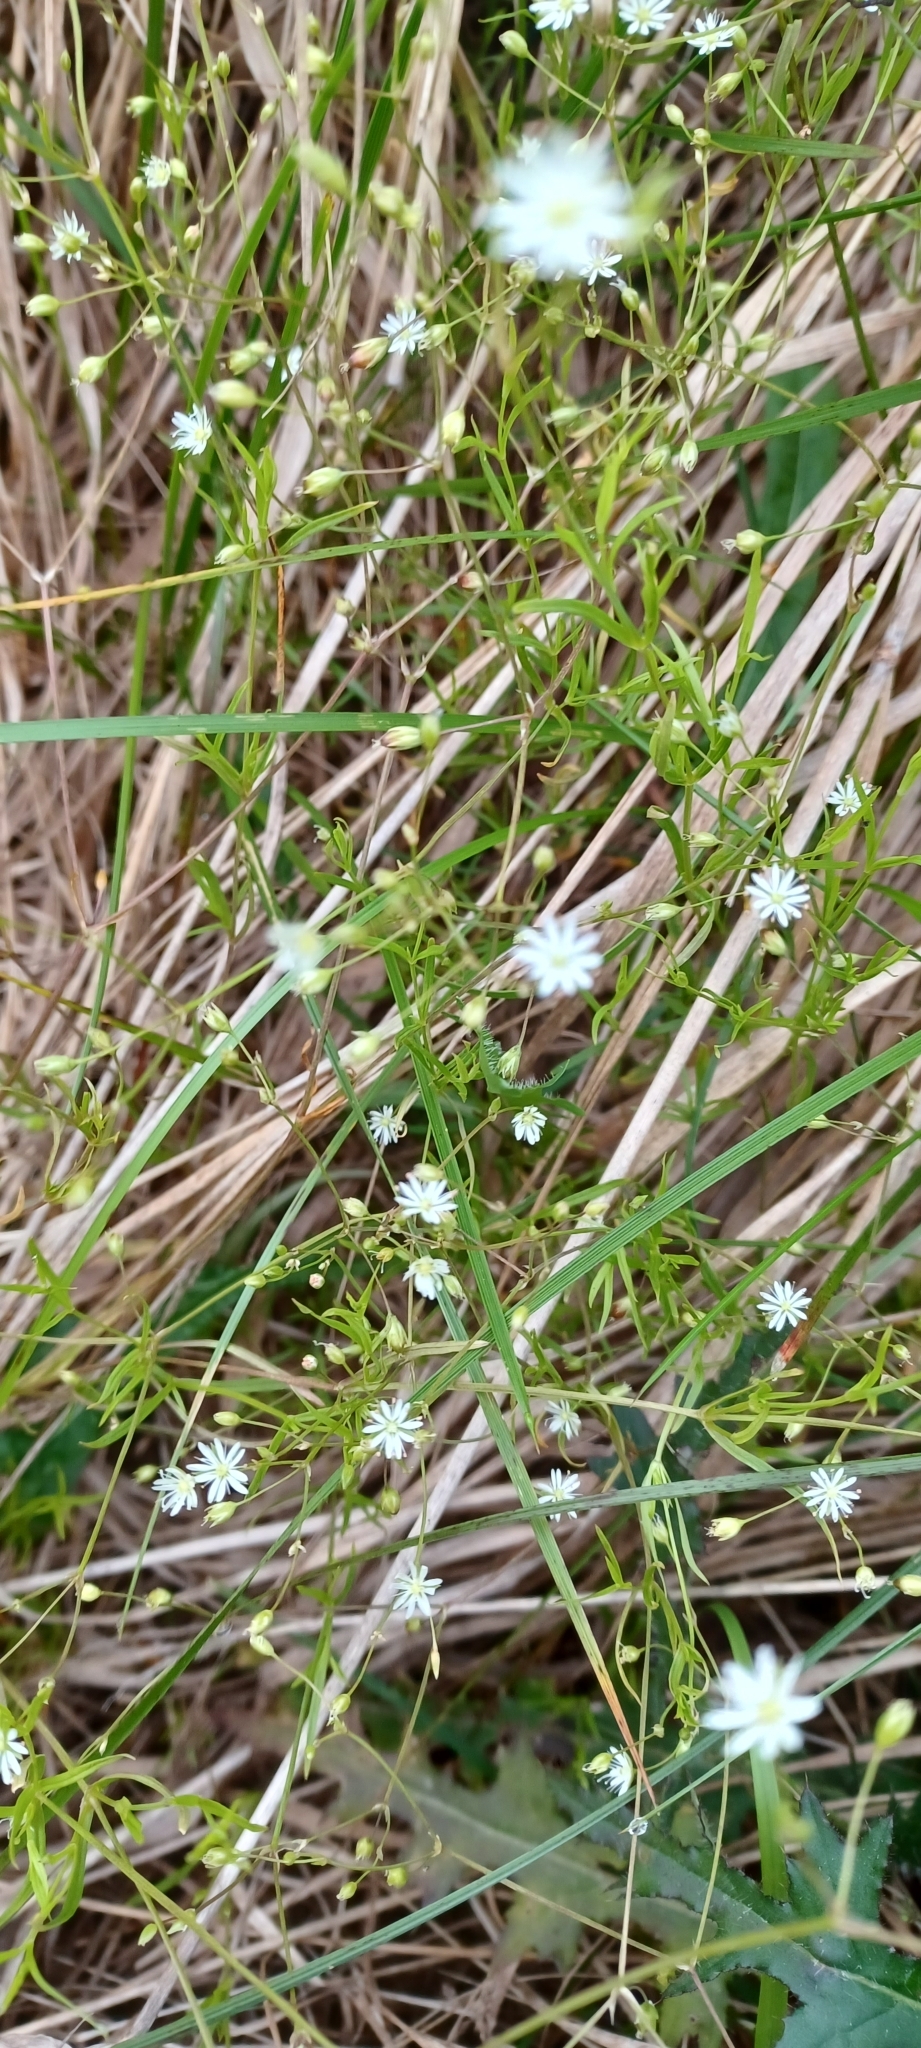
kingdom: Plantae
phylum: Tracheophyta
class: Magnoliopsida
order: Caryophyllales
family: Caryophyllaceae
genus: Stellaria
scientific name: Stellaria graminea
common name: Grass-like starwort
